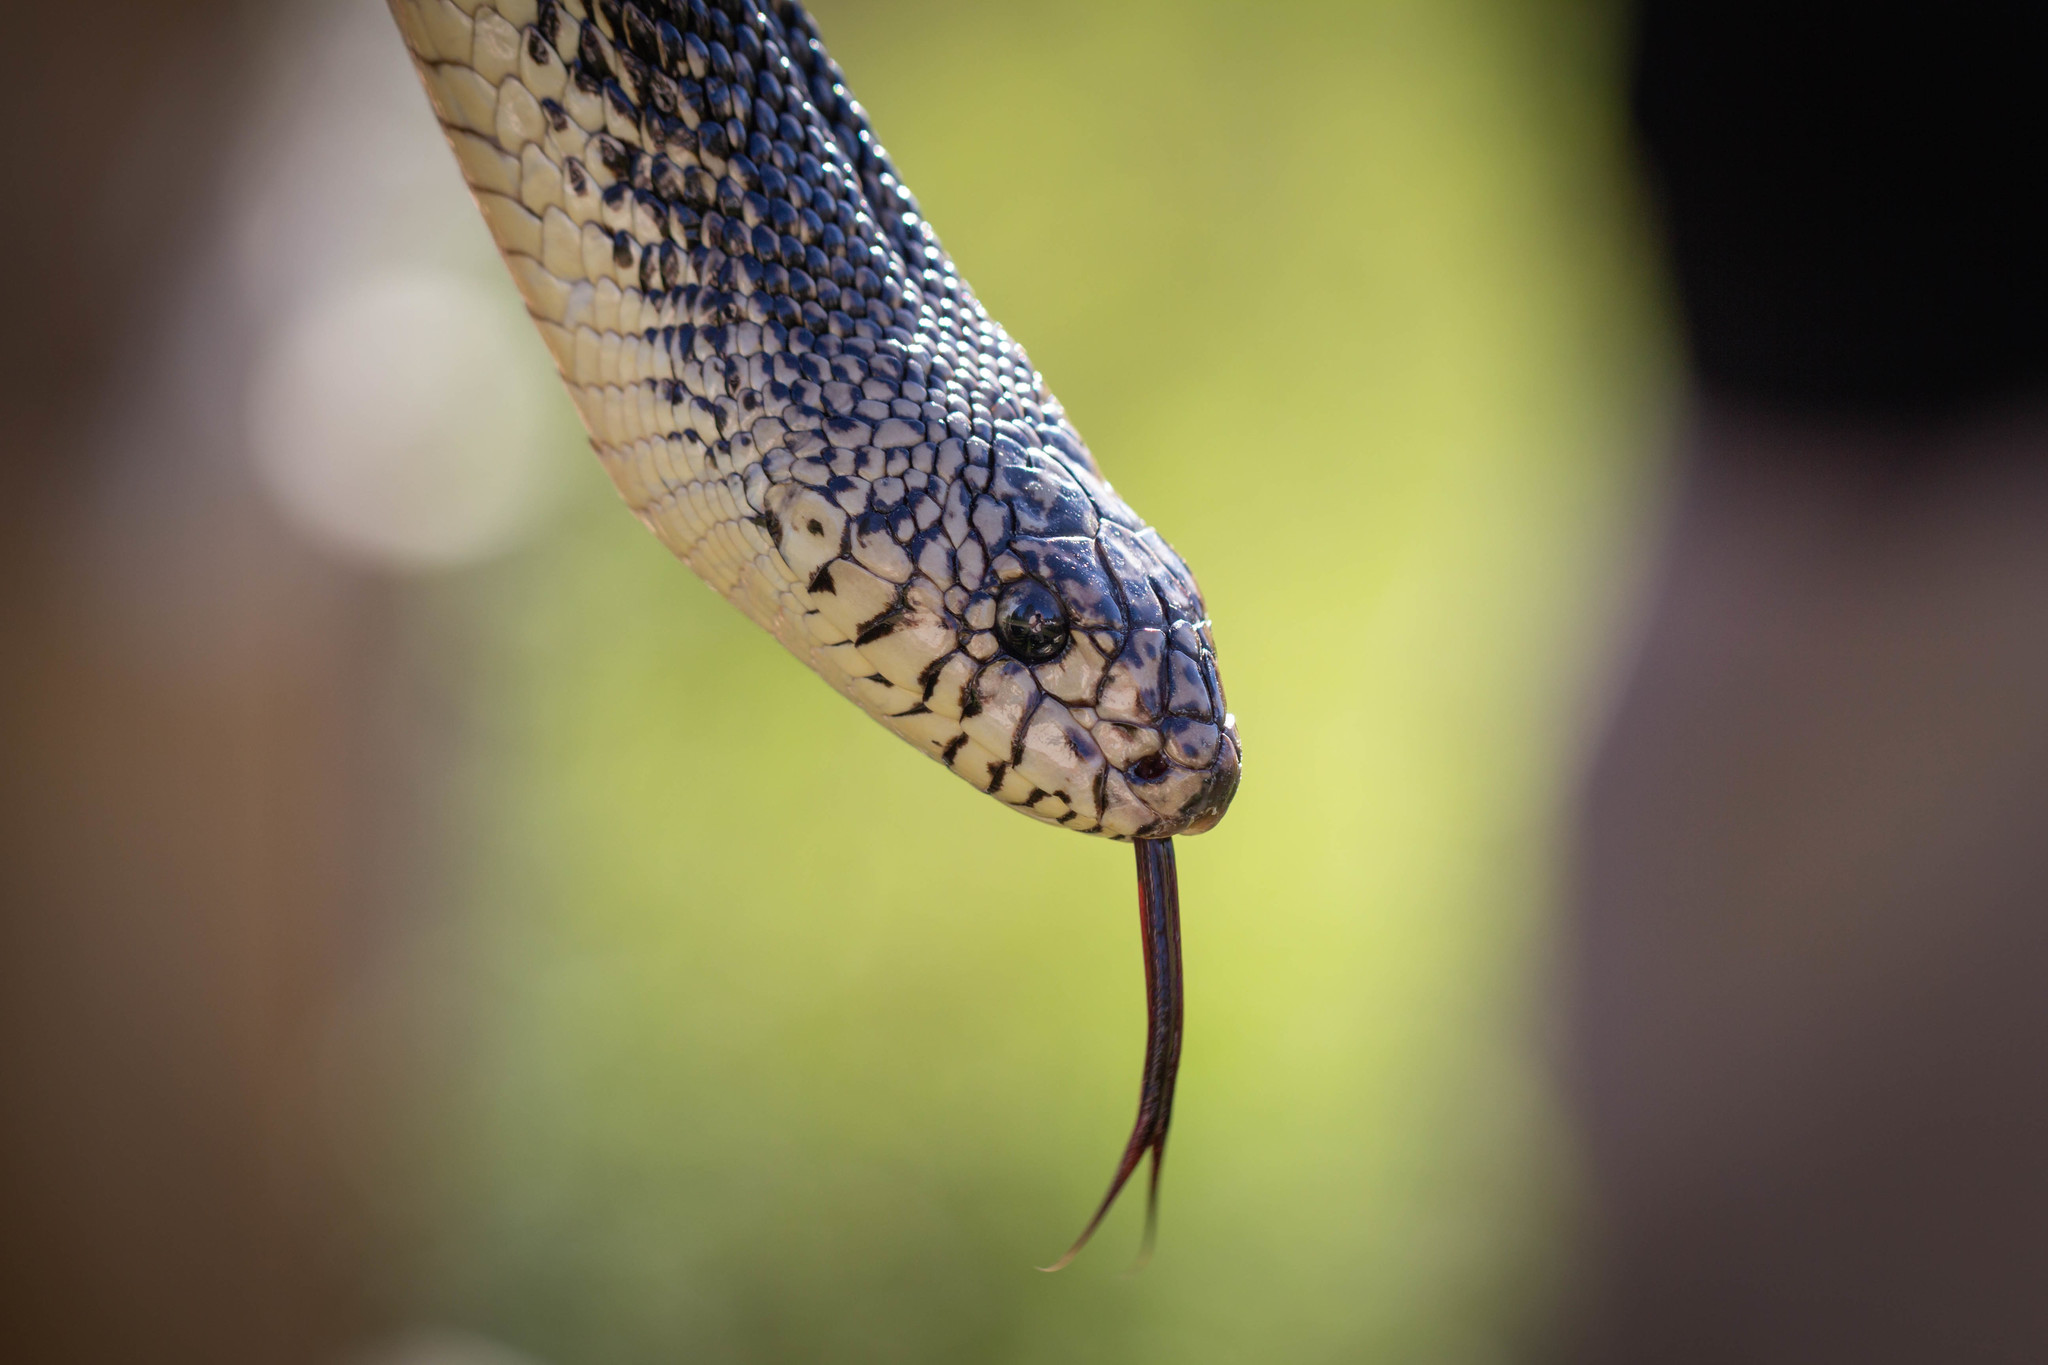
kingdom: Animalia
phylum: Chordata
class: Squamata
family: Colubridae
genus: Pituophis
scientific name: Pituophis ruthveni
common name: Louisiana pine snake
